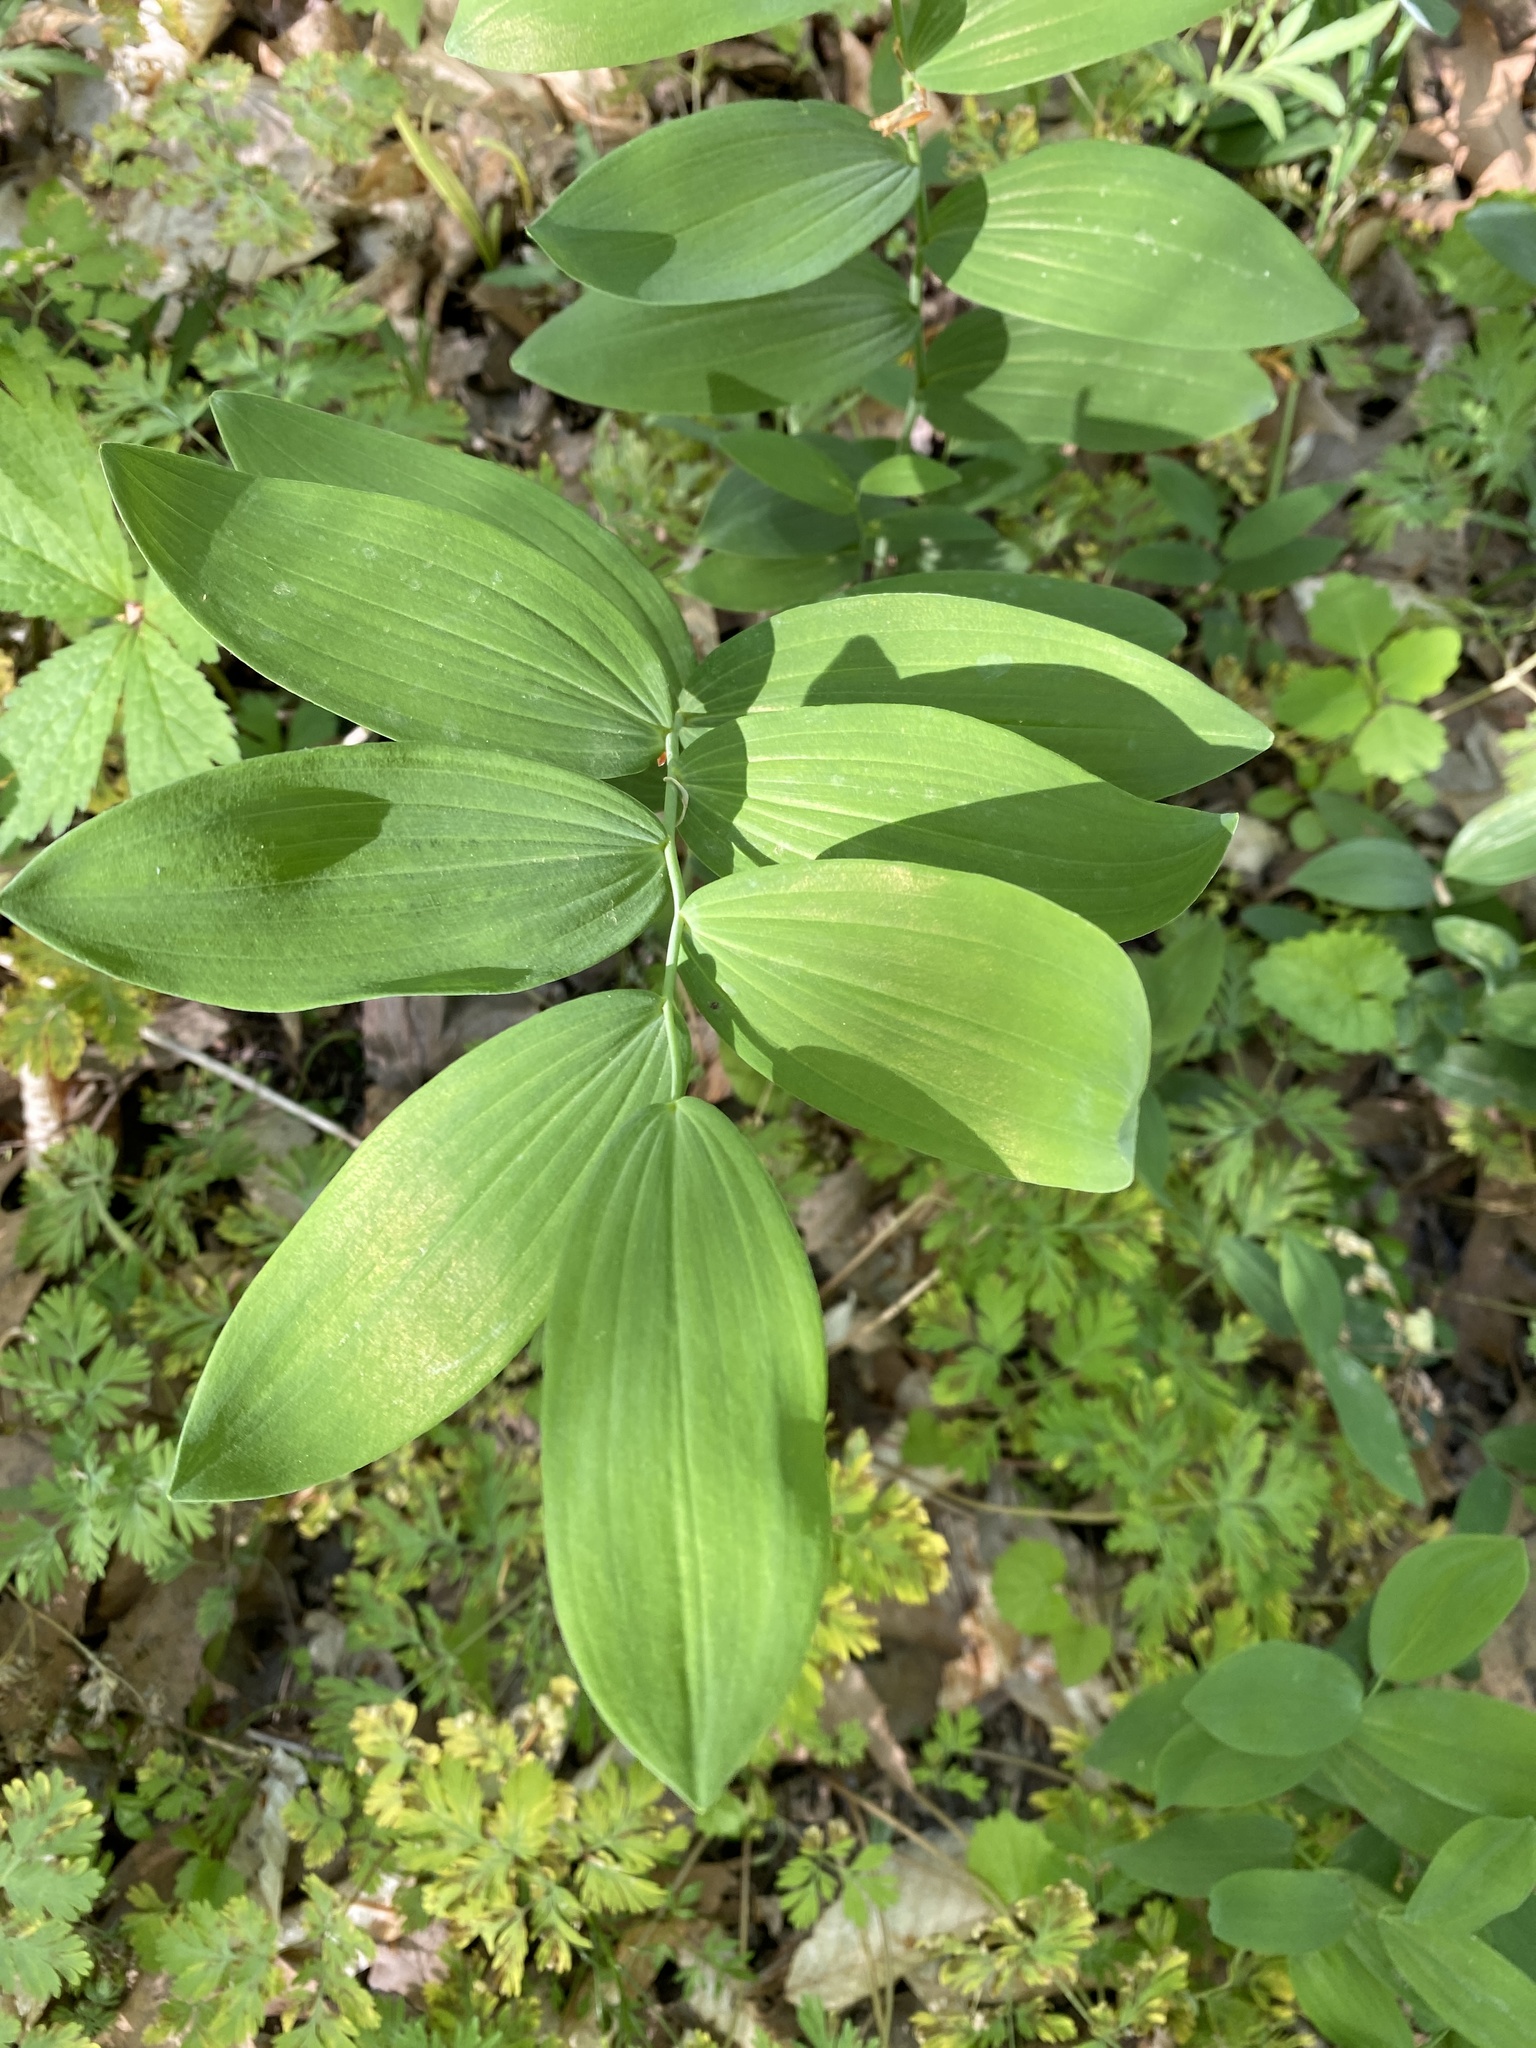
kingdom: Plantae
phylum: Tracheophyta
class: Liliopsida
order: Asparagales
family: Asparagaceae
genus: Polygonatum
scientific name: Polygonatum biflorum
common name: American solomon's-seal
